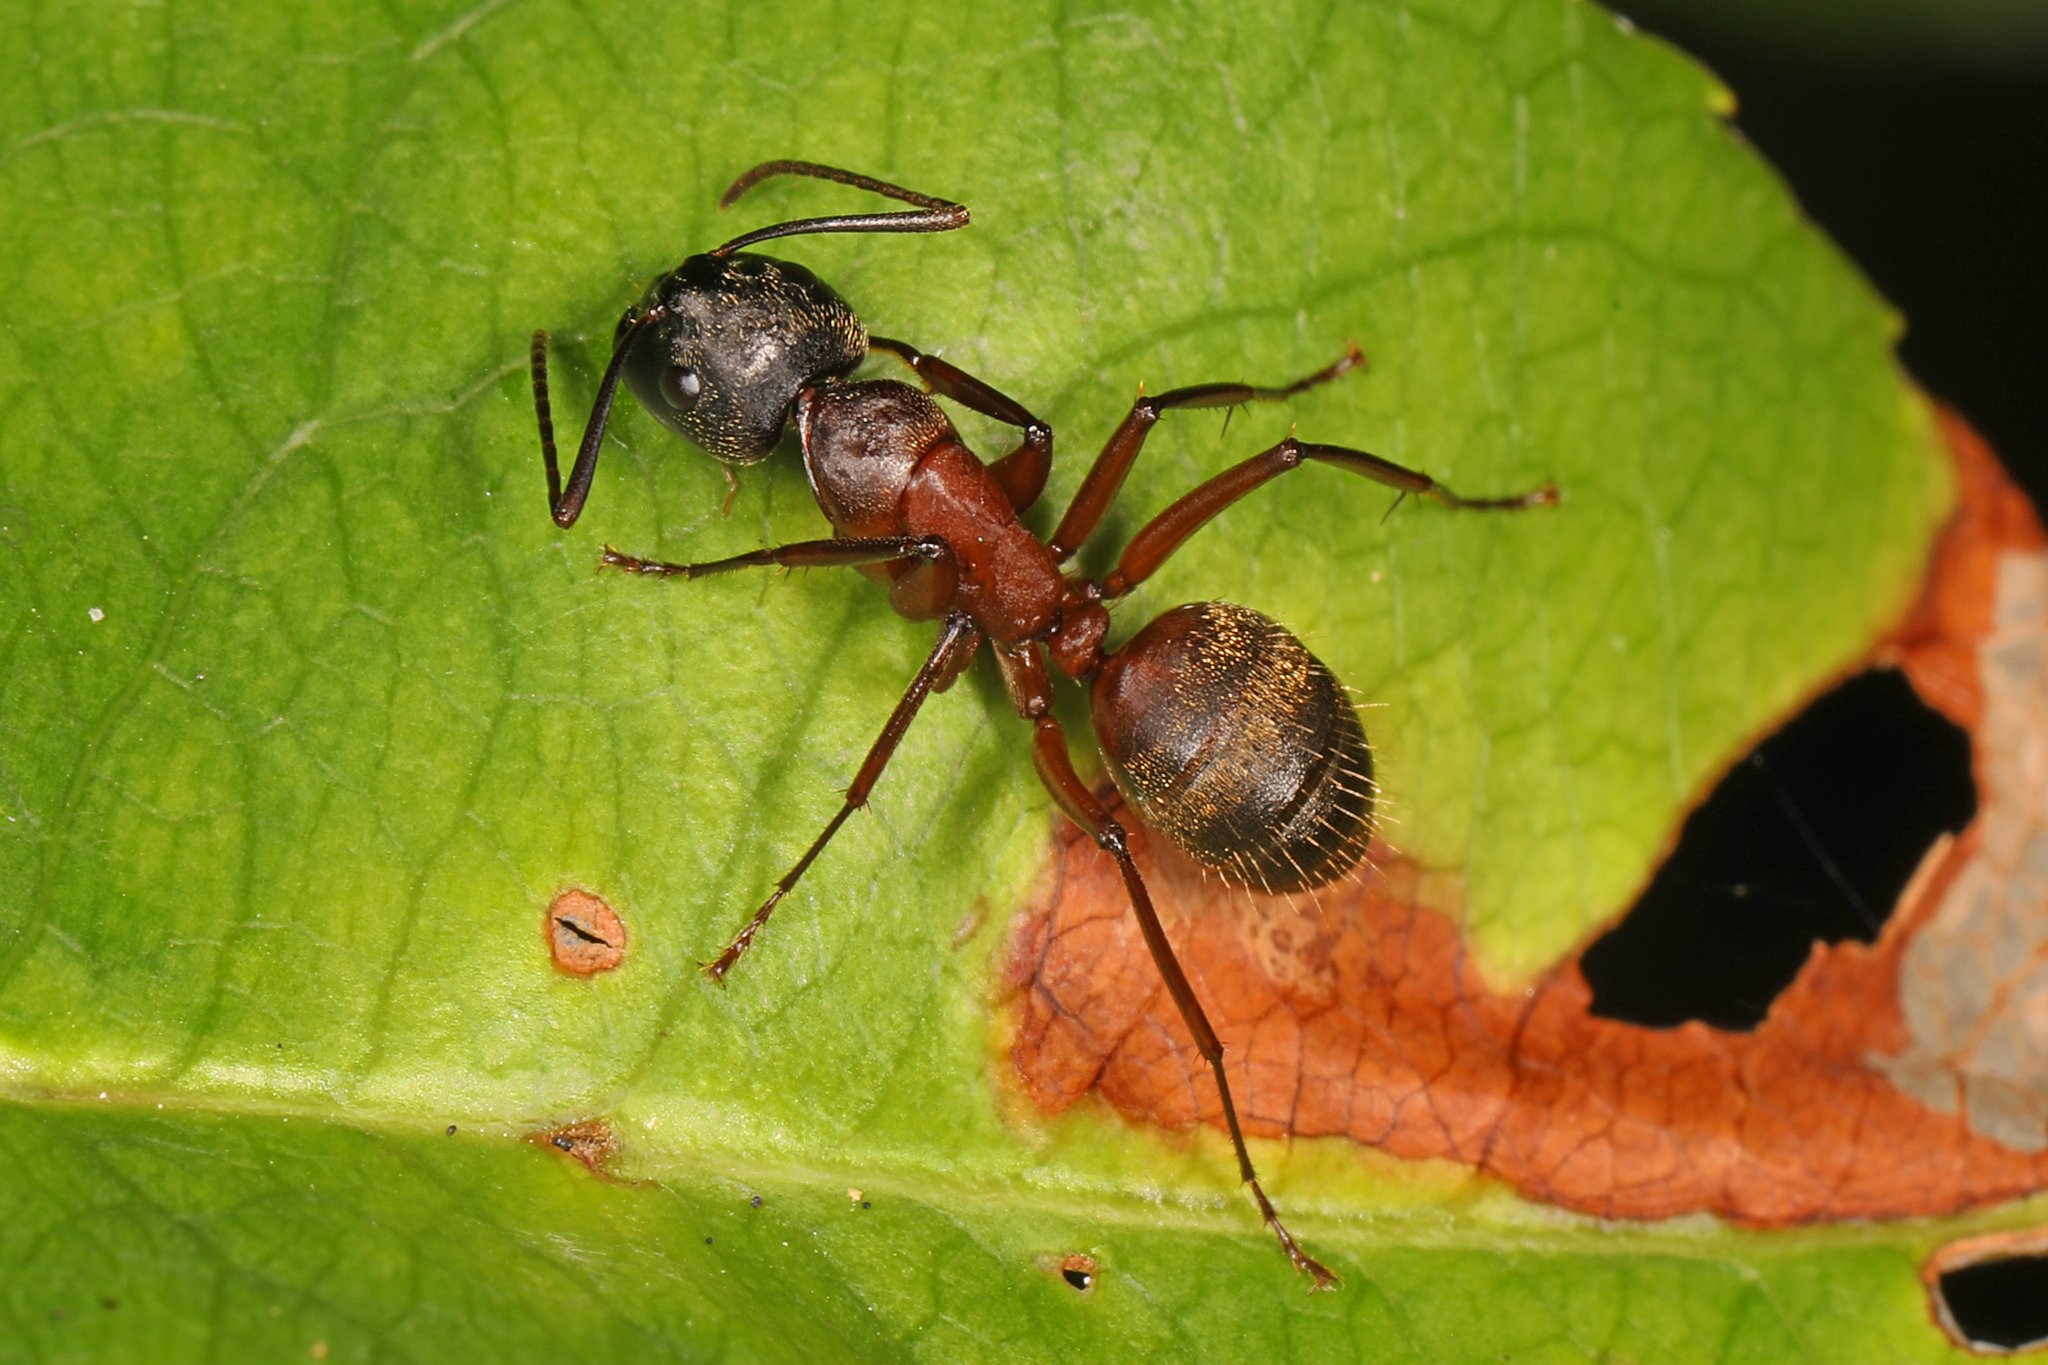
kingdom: Animalia
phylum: Arthropoda
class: Insecta
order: Hymenoptera
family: Formicidae
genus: Camponotus
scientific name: Camponotus chromaiodes
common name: Red carpenter ant
